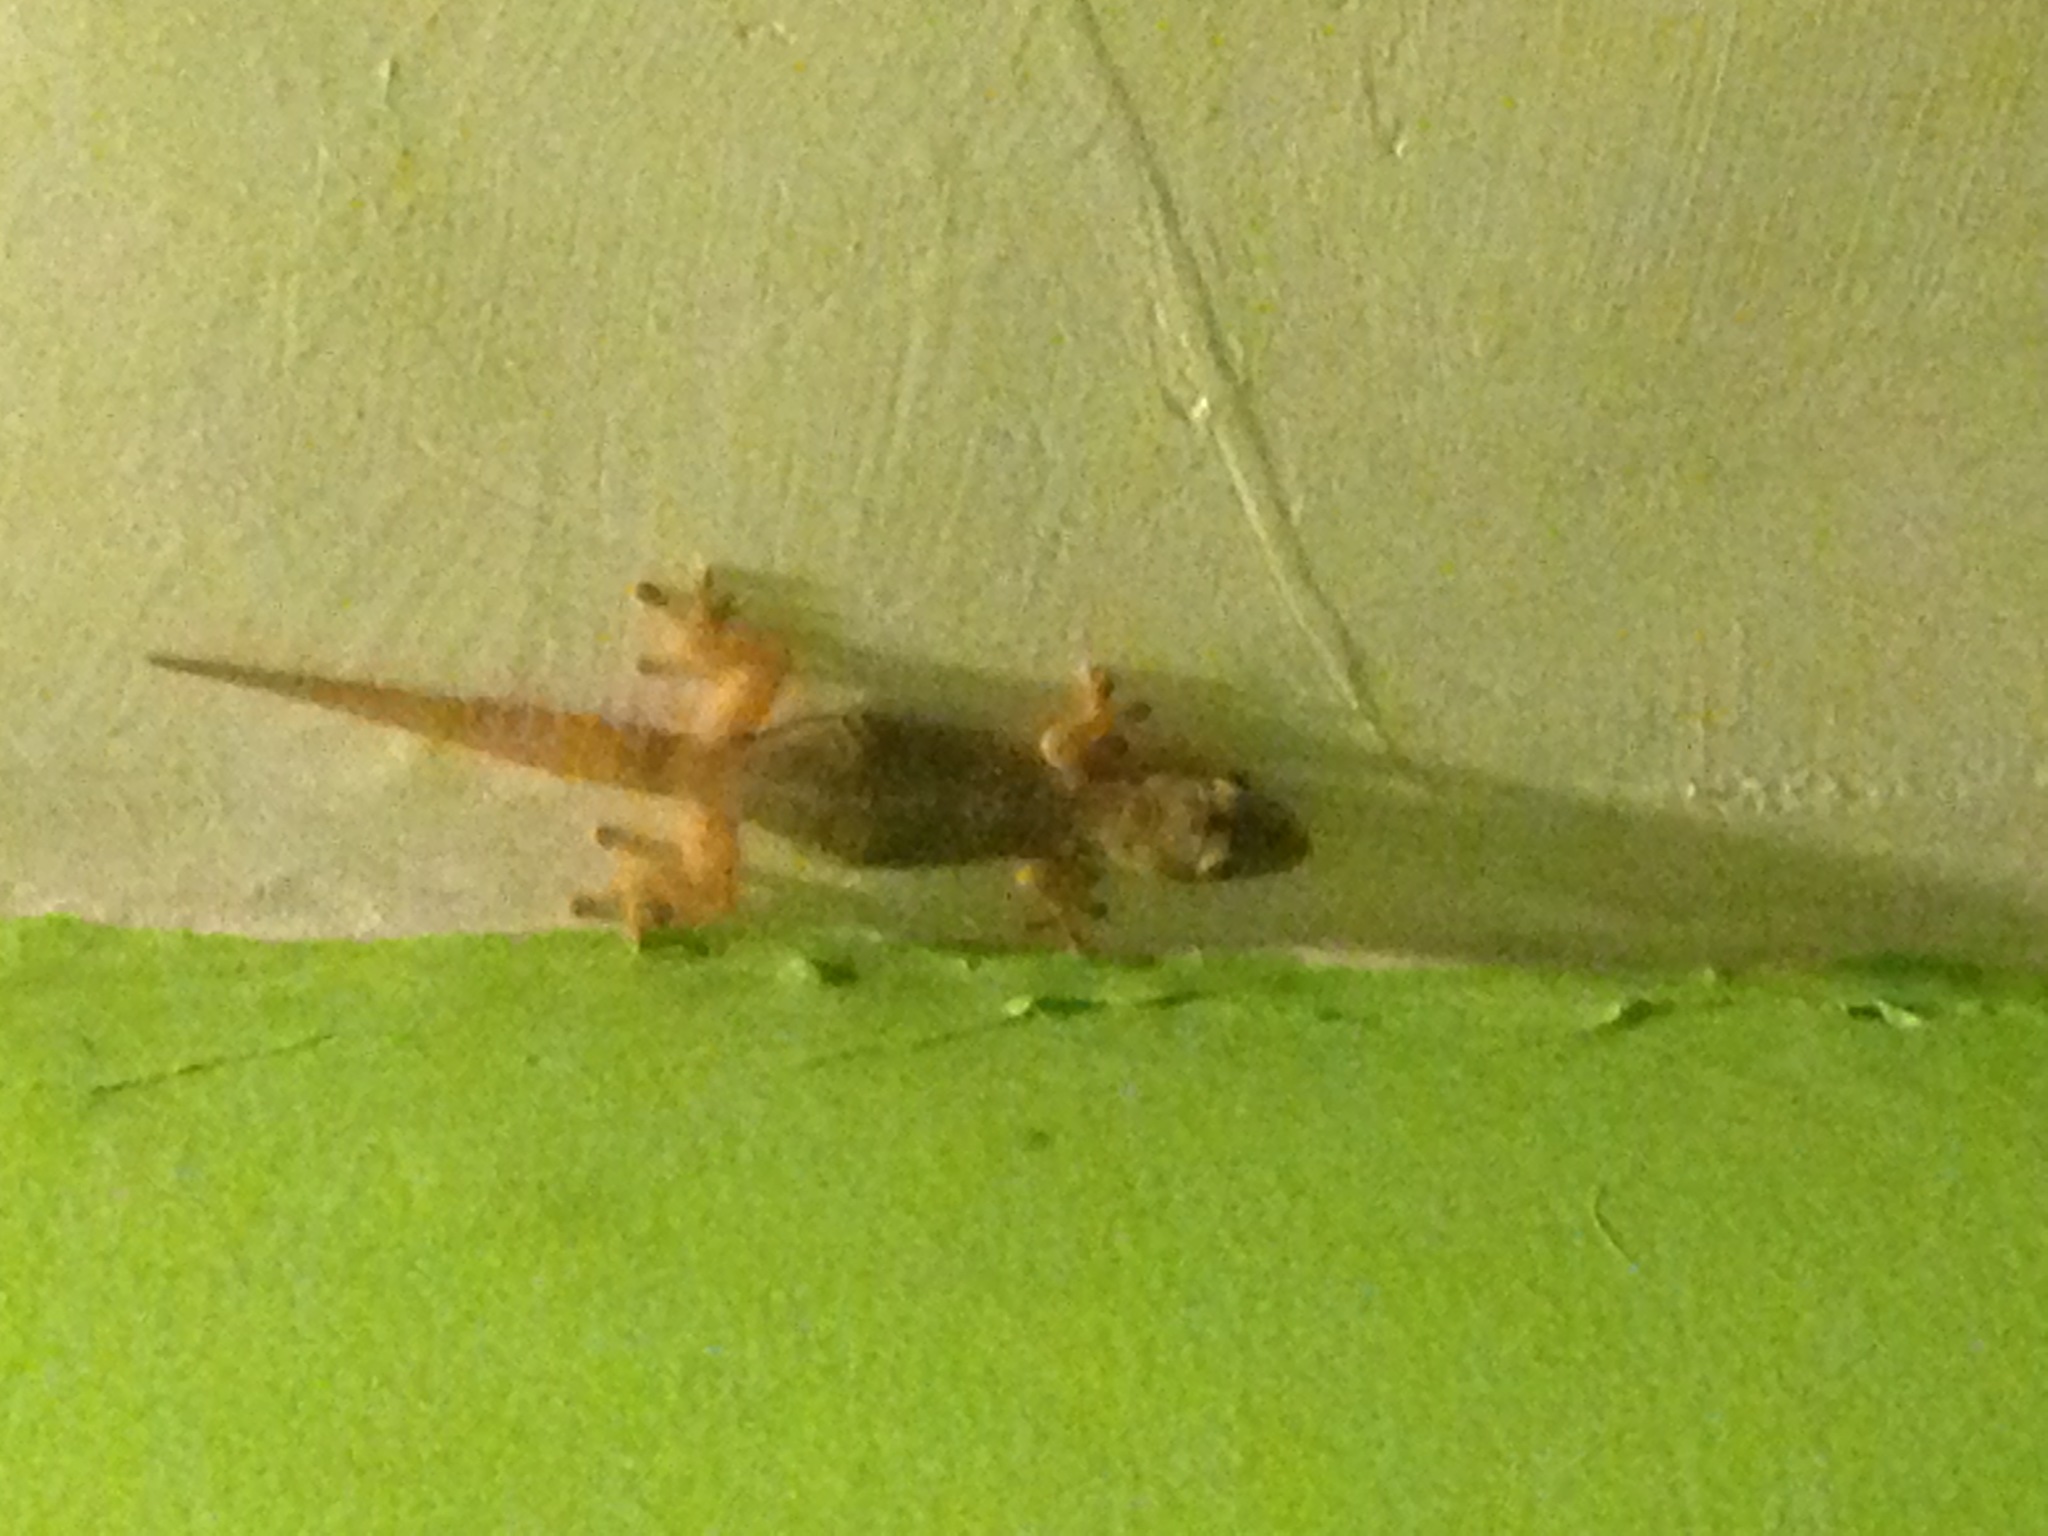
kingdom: Animalia
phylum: Chordata
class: Squamata
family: Gekkonidae
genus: Hemidactylus
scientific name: Hemidactylus frenatus
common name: Common house gecko
